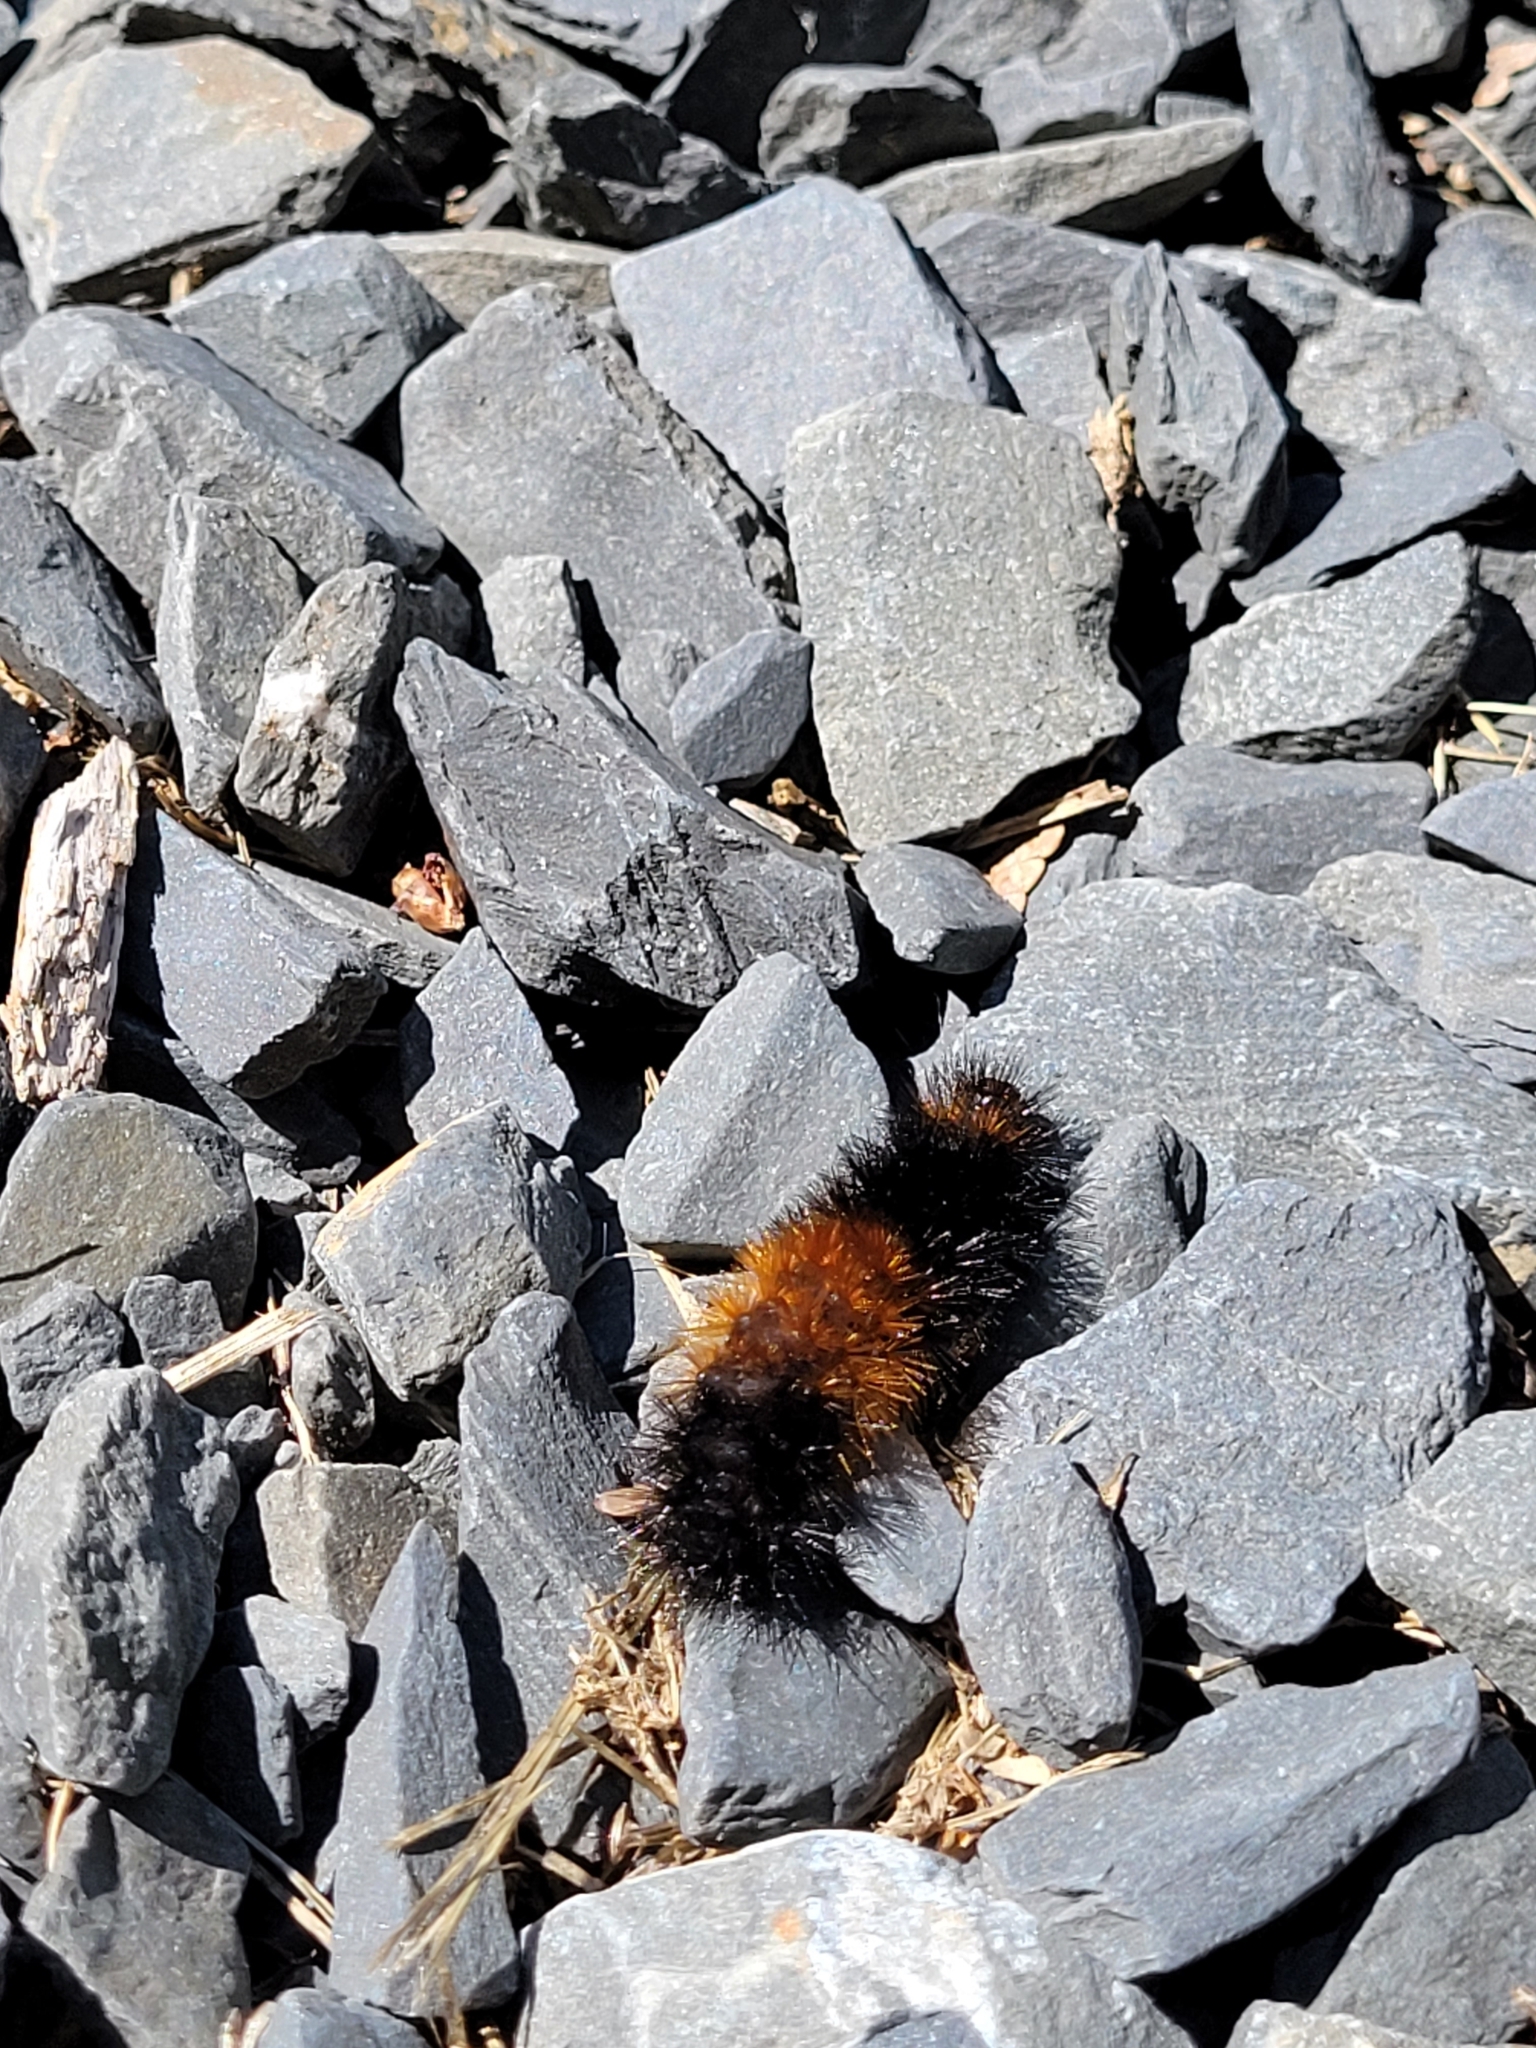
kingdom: Animalia
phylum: Arthropoda
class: Insecta
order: Lepidoptera
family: Erebidae
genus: Pyrrharctia
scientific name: Pyrrharctia isabella
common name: Isabella tiger moth
